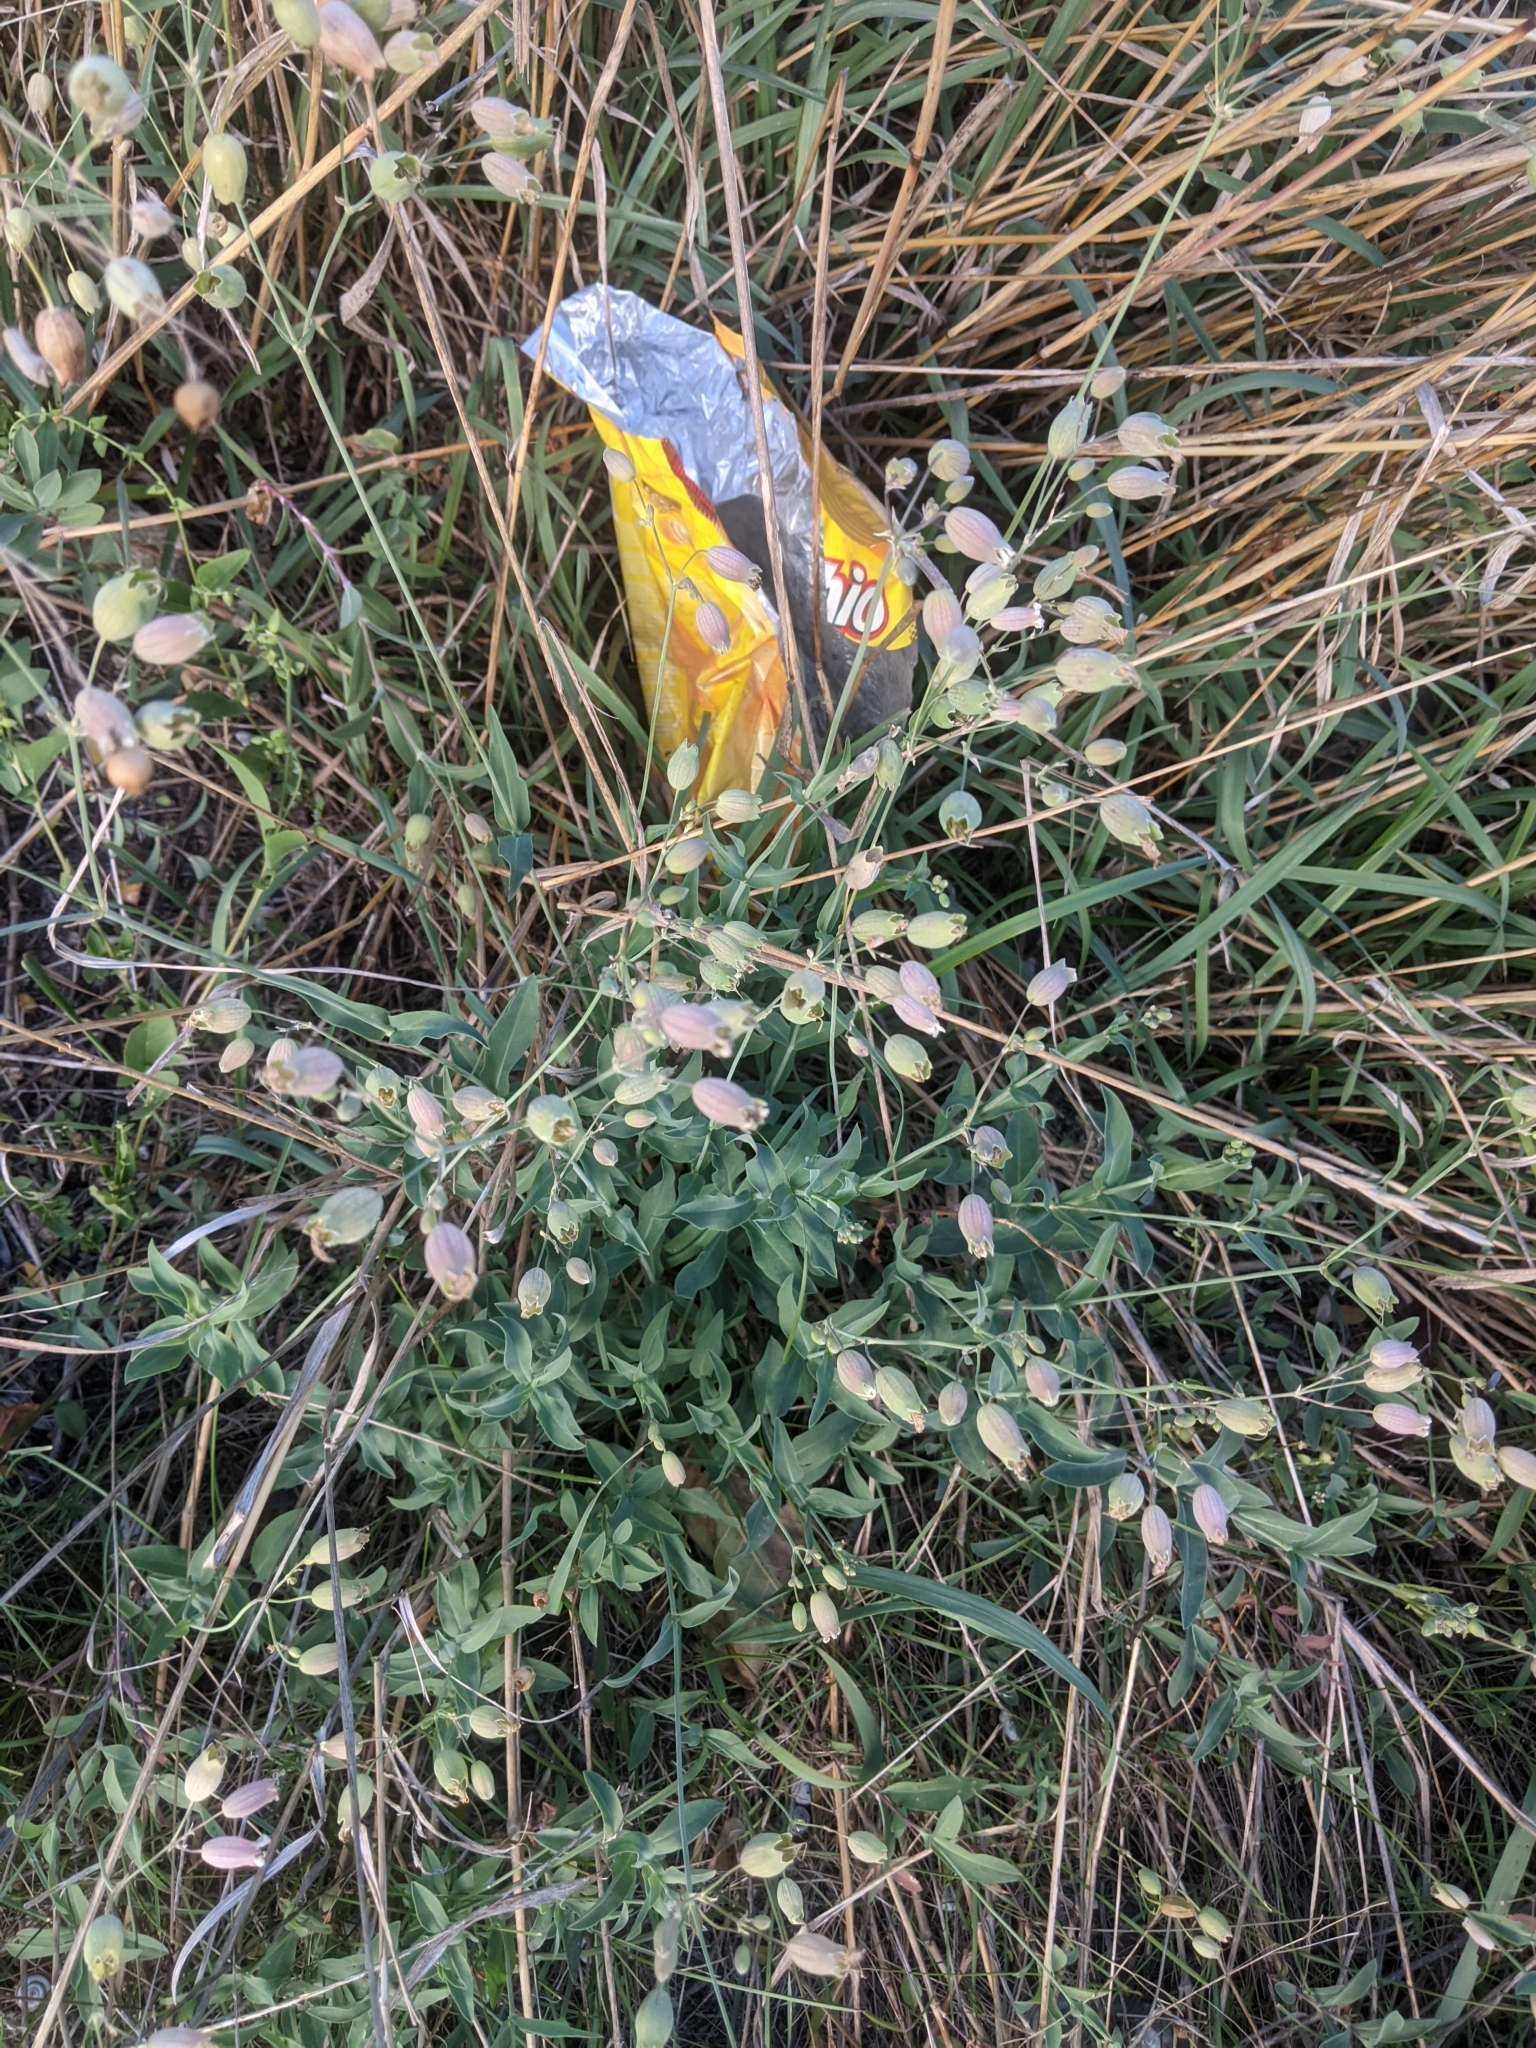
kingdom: Plantae
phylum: Tracheophyta
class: Magnoliopsida
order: Caryophyllales
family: Caryophyllaceae
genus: Silene
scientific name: Silene vulgaris
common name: Bladder campion
